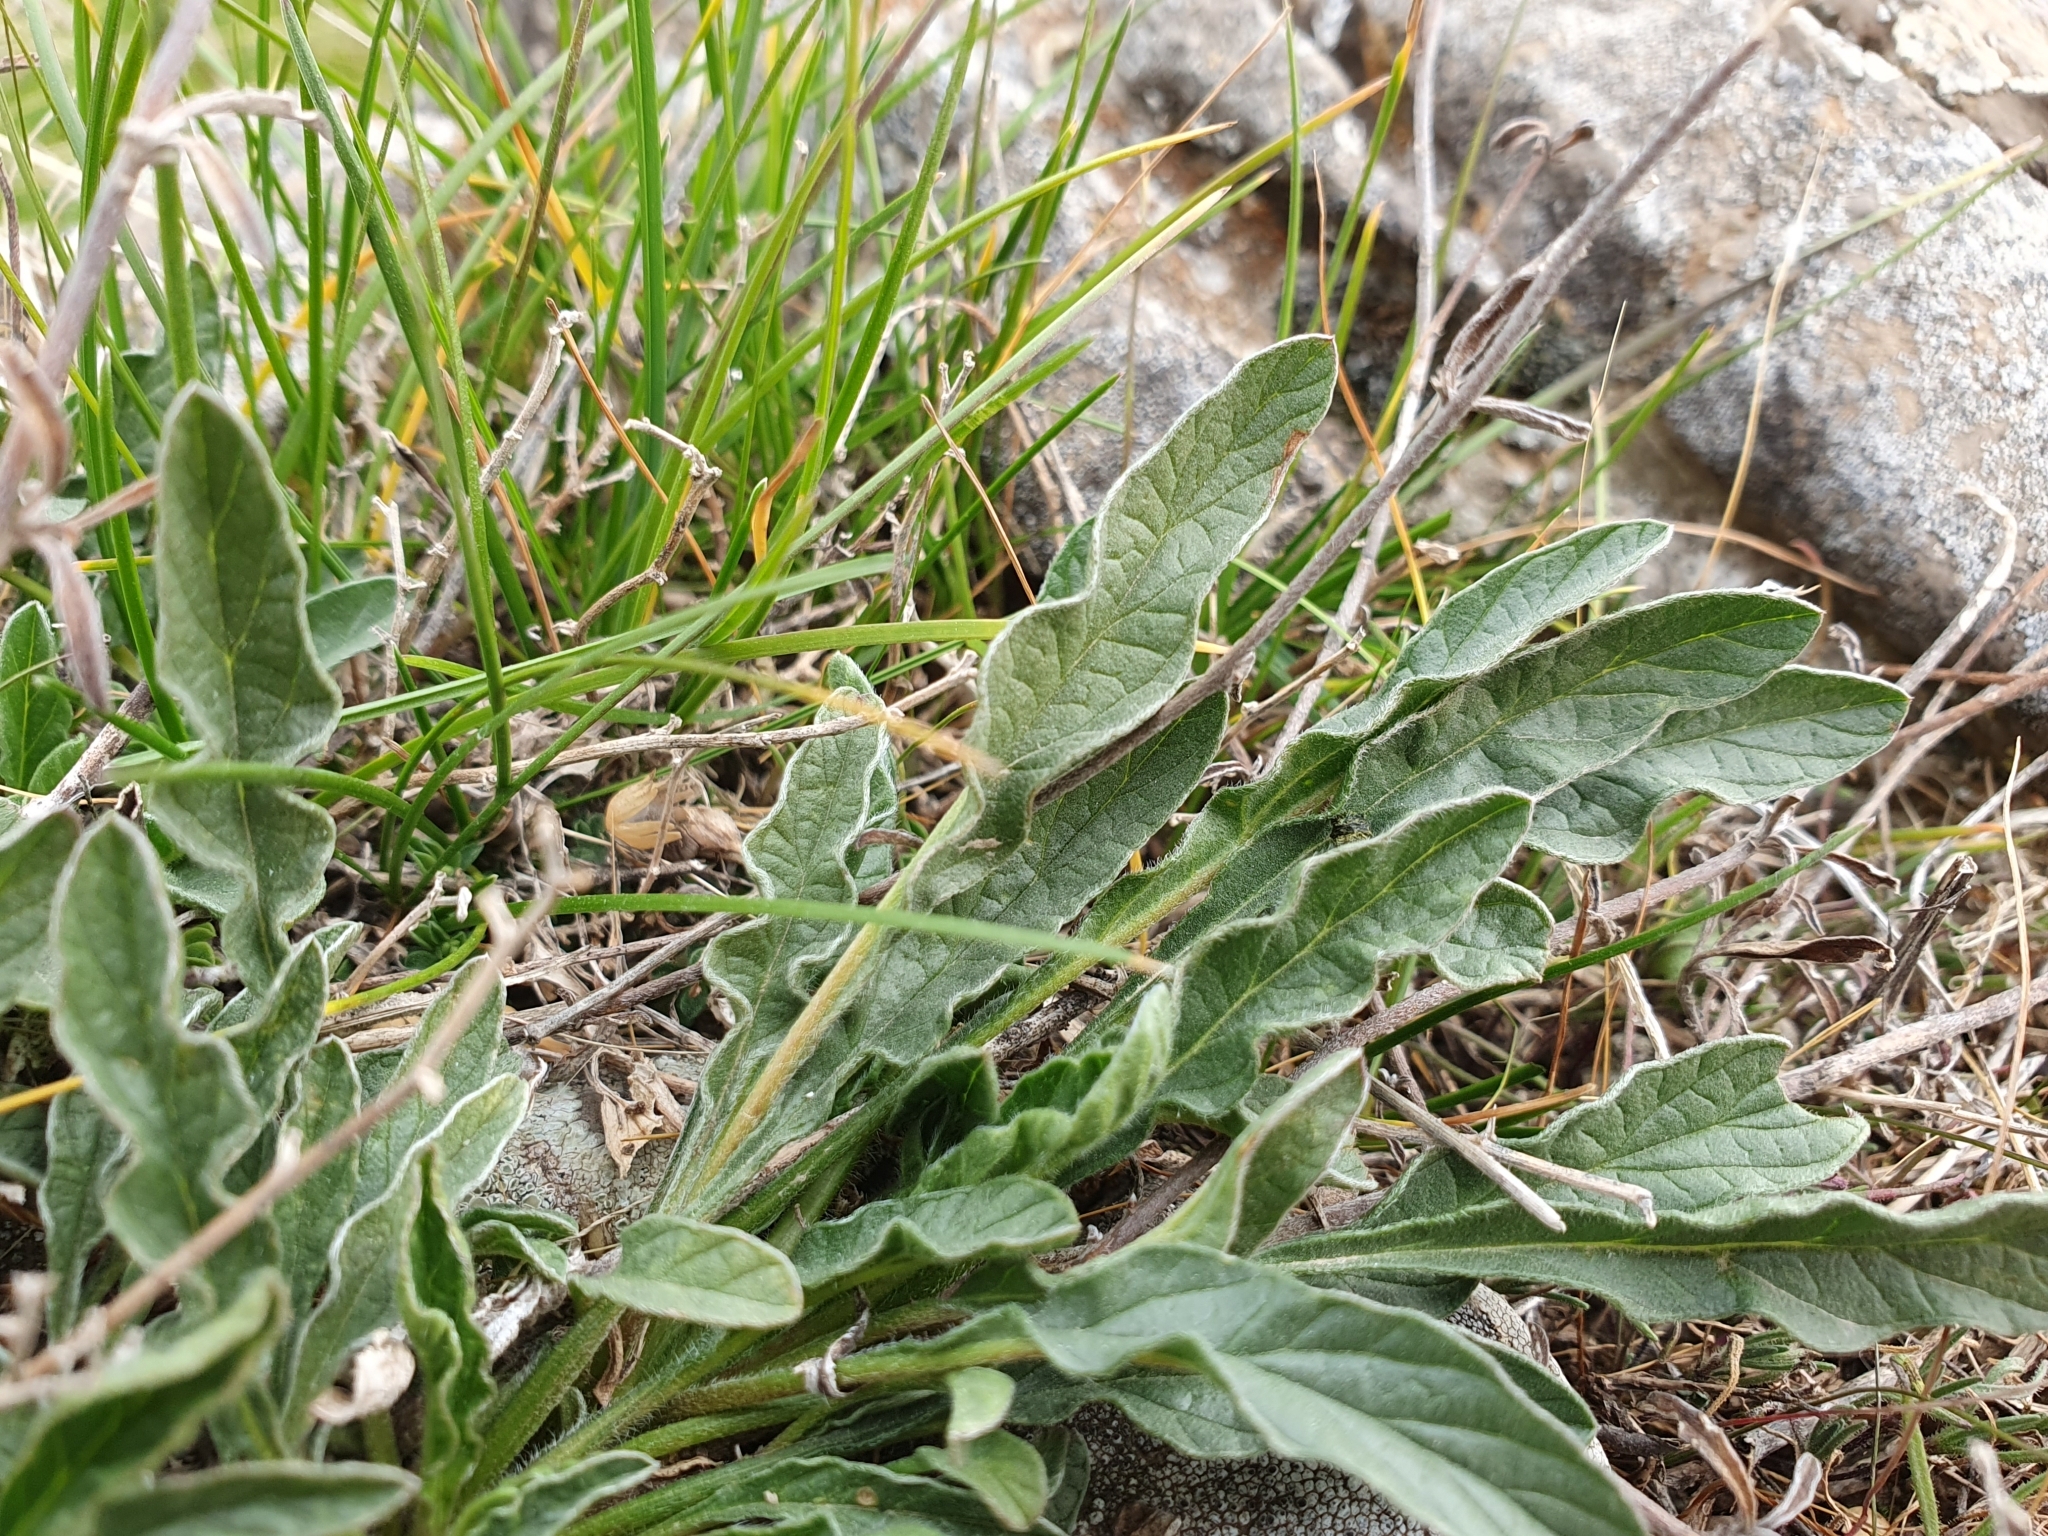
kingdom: Plantae
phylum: Tracheophyta
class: Magnoliopsida
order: Solanales
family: Convolvulaceae
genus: Convolvulus
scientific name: Convolvulus cantabrica
